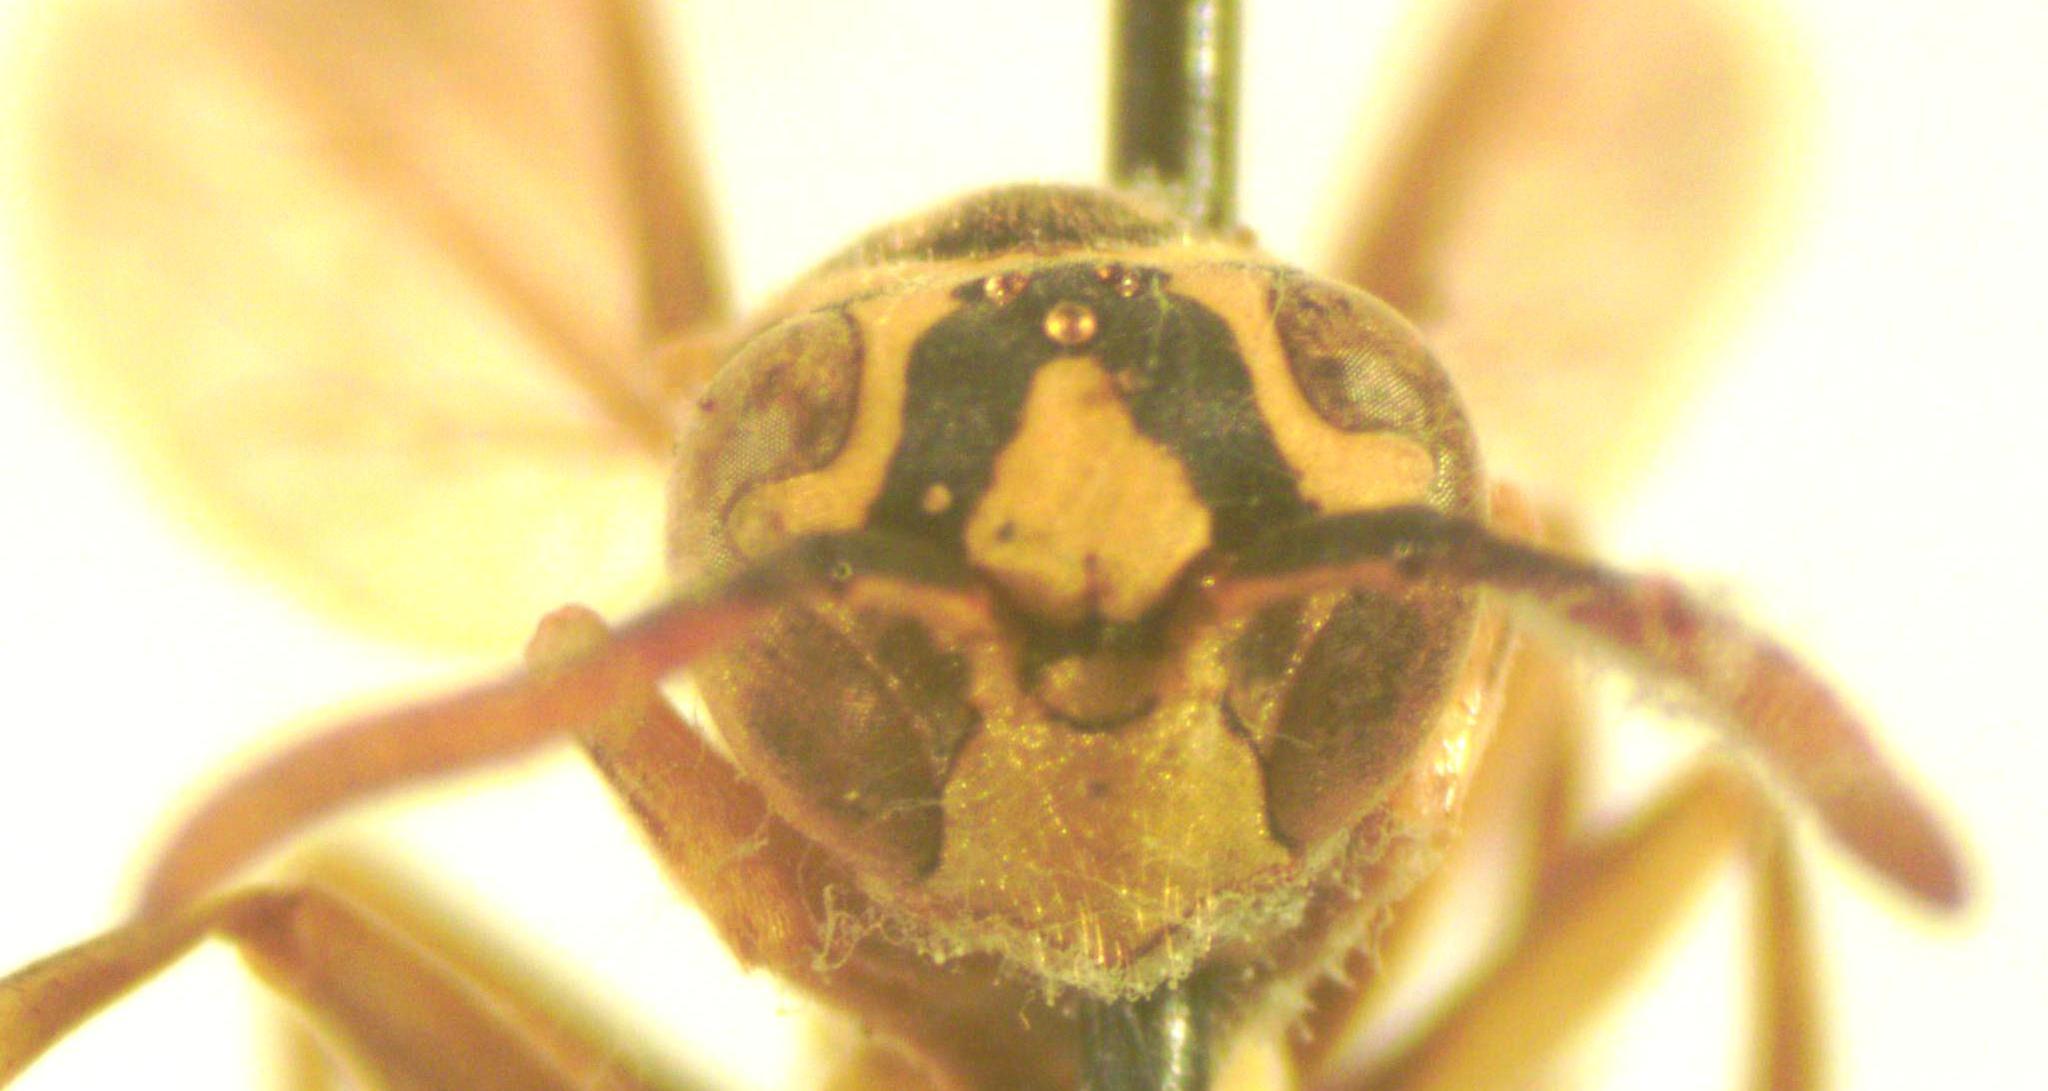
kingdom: Animalia
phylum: Arthropoda
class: Insecta
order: Hymenoptera
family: Vespidae
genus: Mischocyttarus
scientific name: Mischocyttarus basimacula
